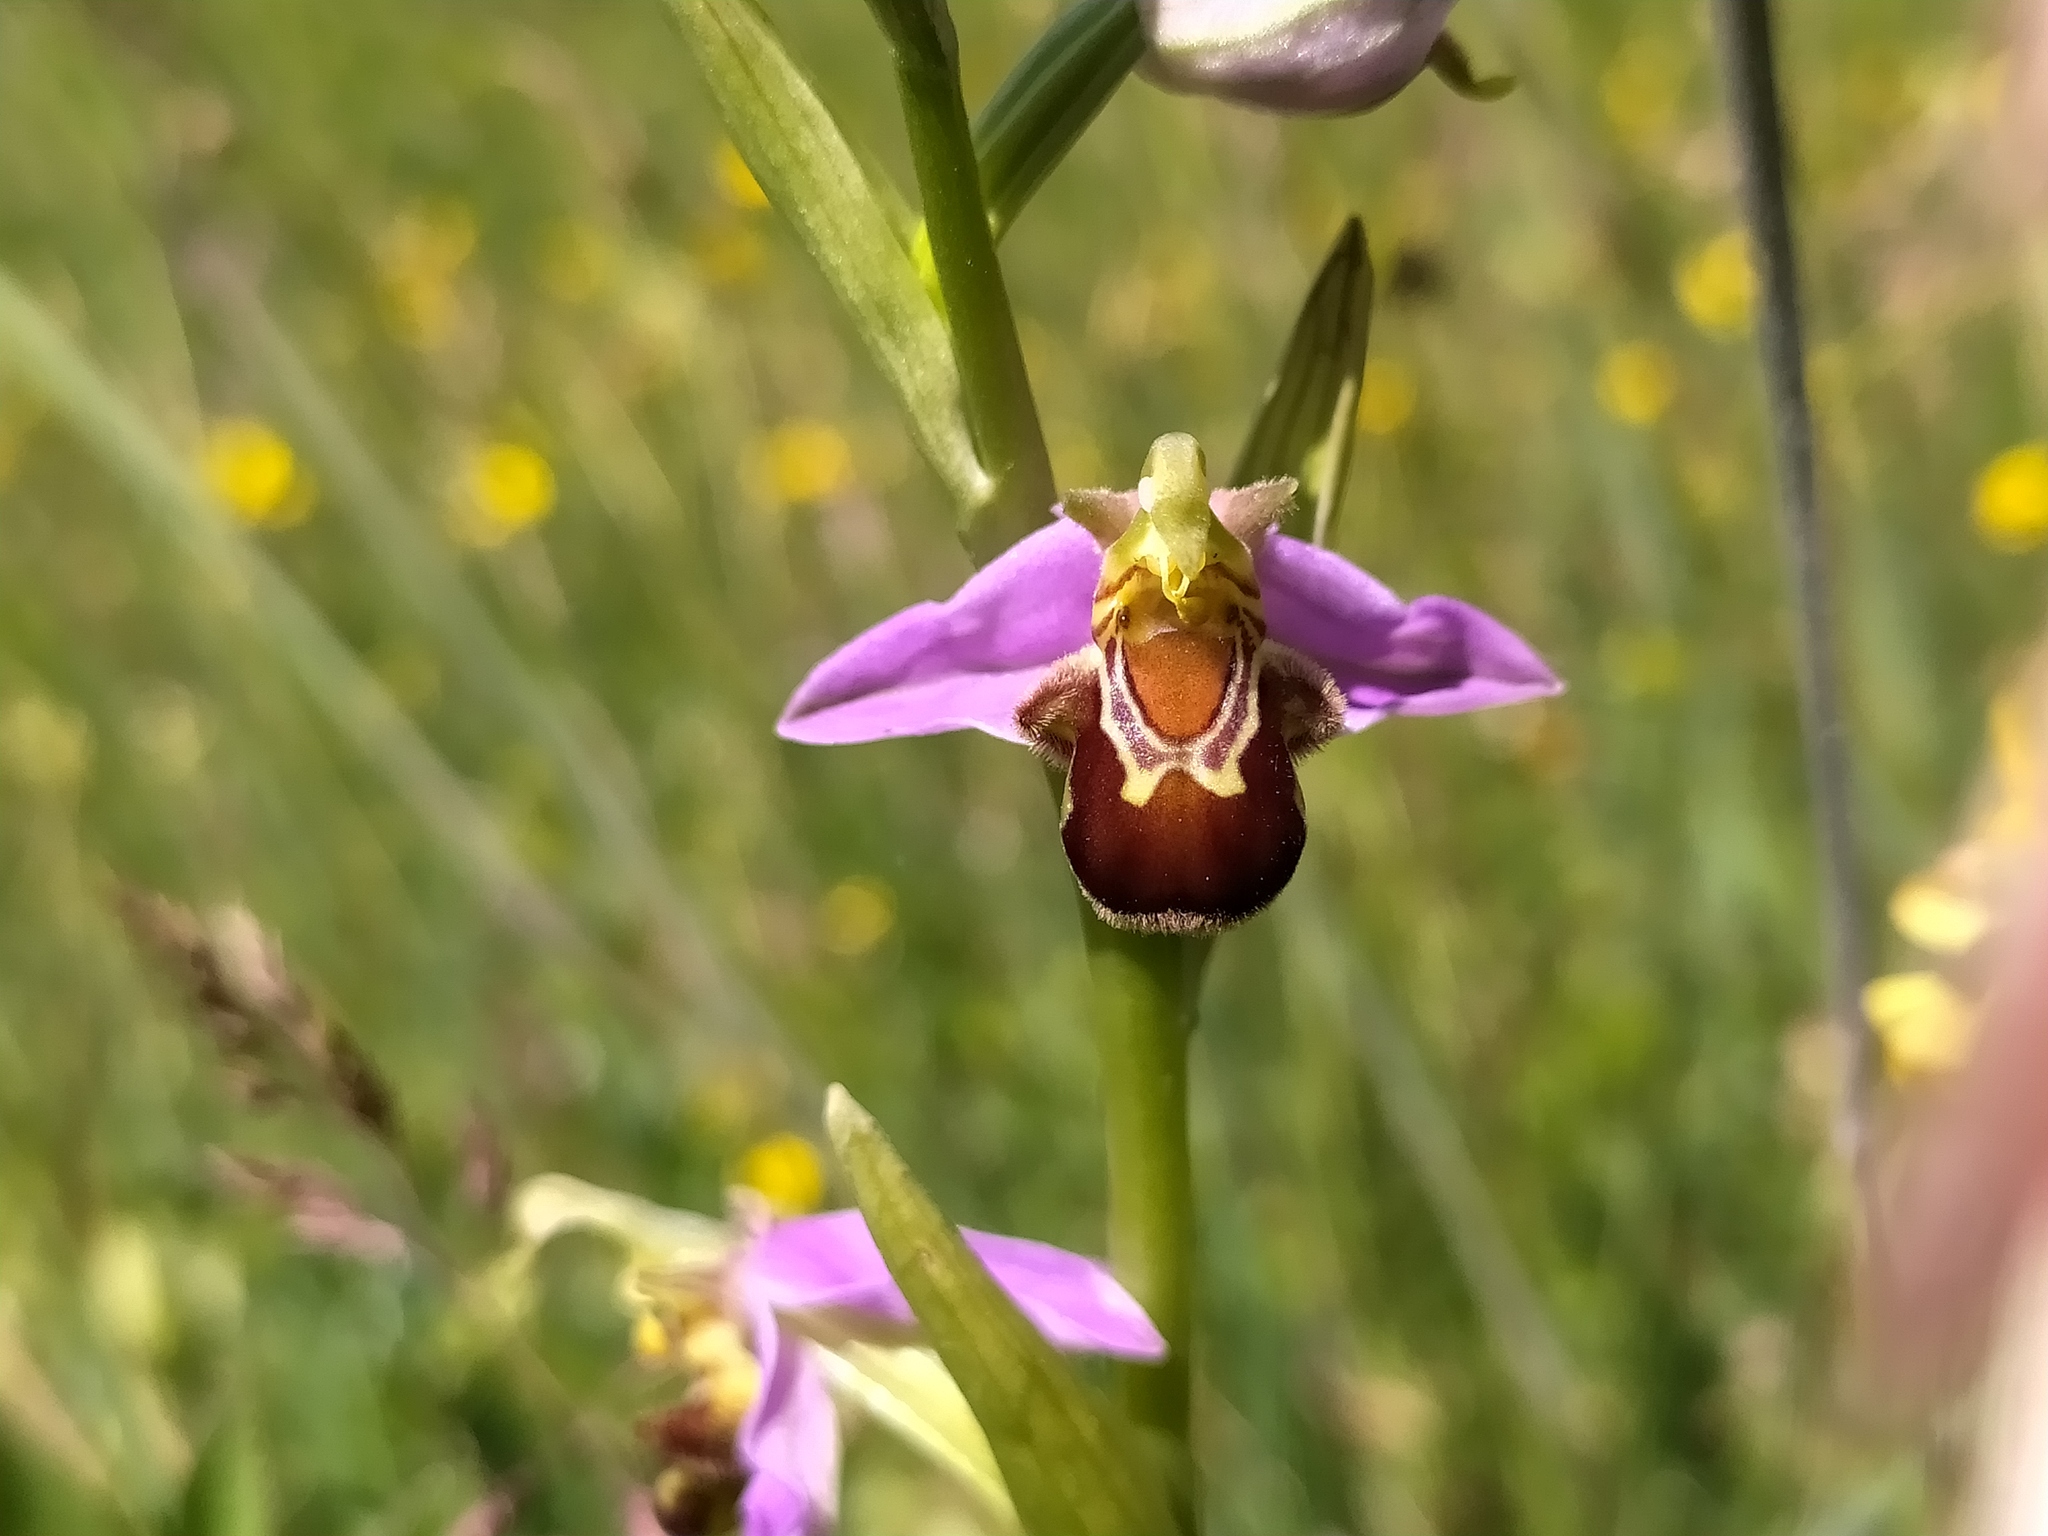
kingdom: Plantae
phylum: Tracheophyta
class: Liliopsida
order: Asparagales
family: Orchidaceae
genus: Ophrys
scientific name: Ophrys apifera
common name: Bee orchid
